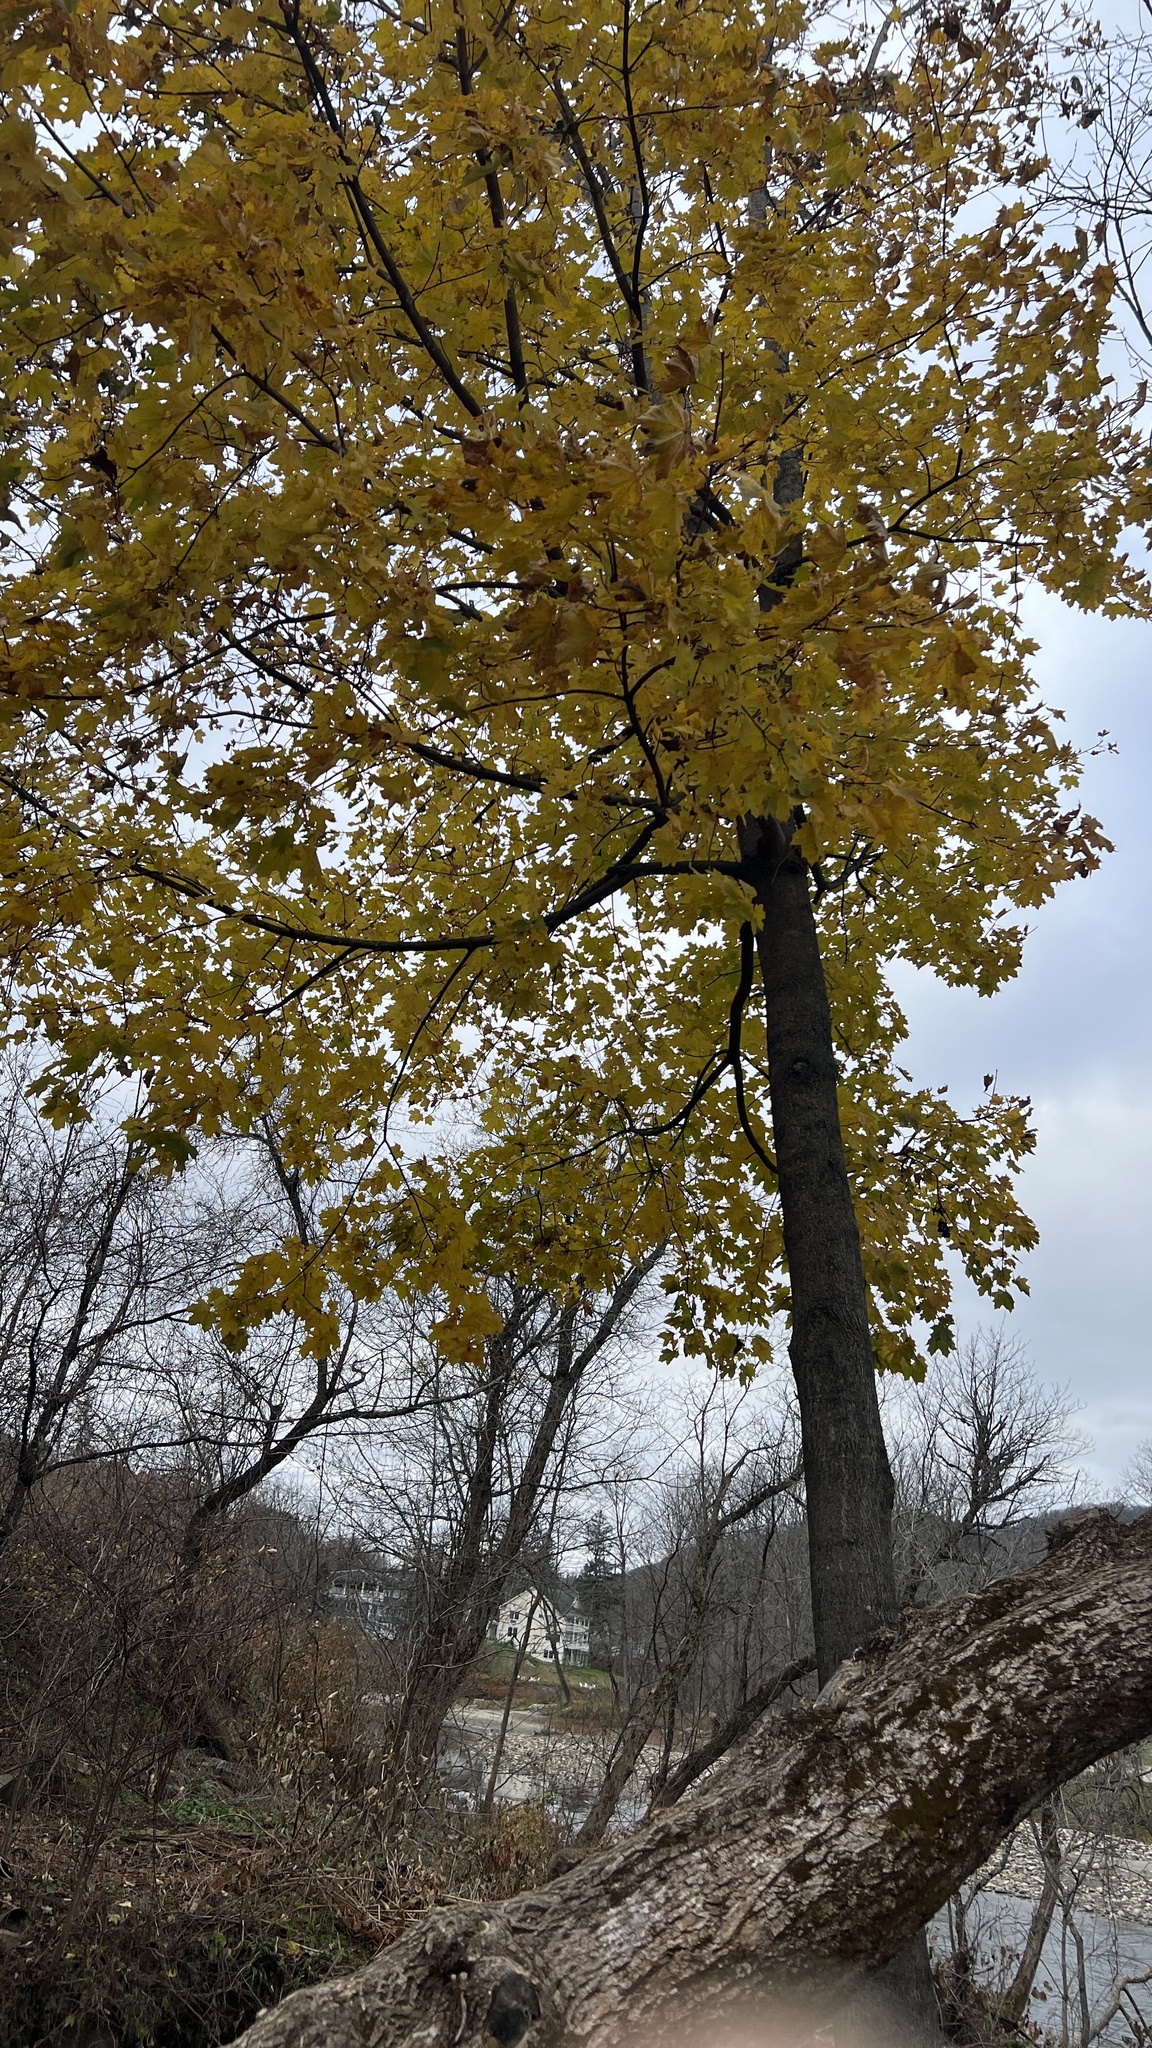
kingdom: Plantae
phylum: Tracheophyta
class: Magnoliopsida
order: Sapindales
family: Sapindaceae
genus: Acer
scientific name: Acer platanoides
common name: Norway maple
